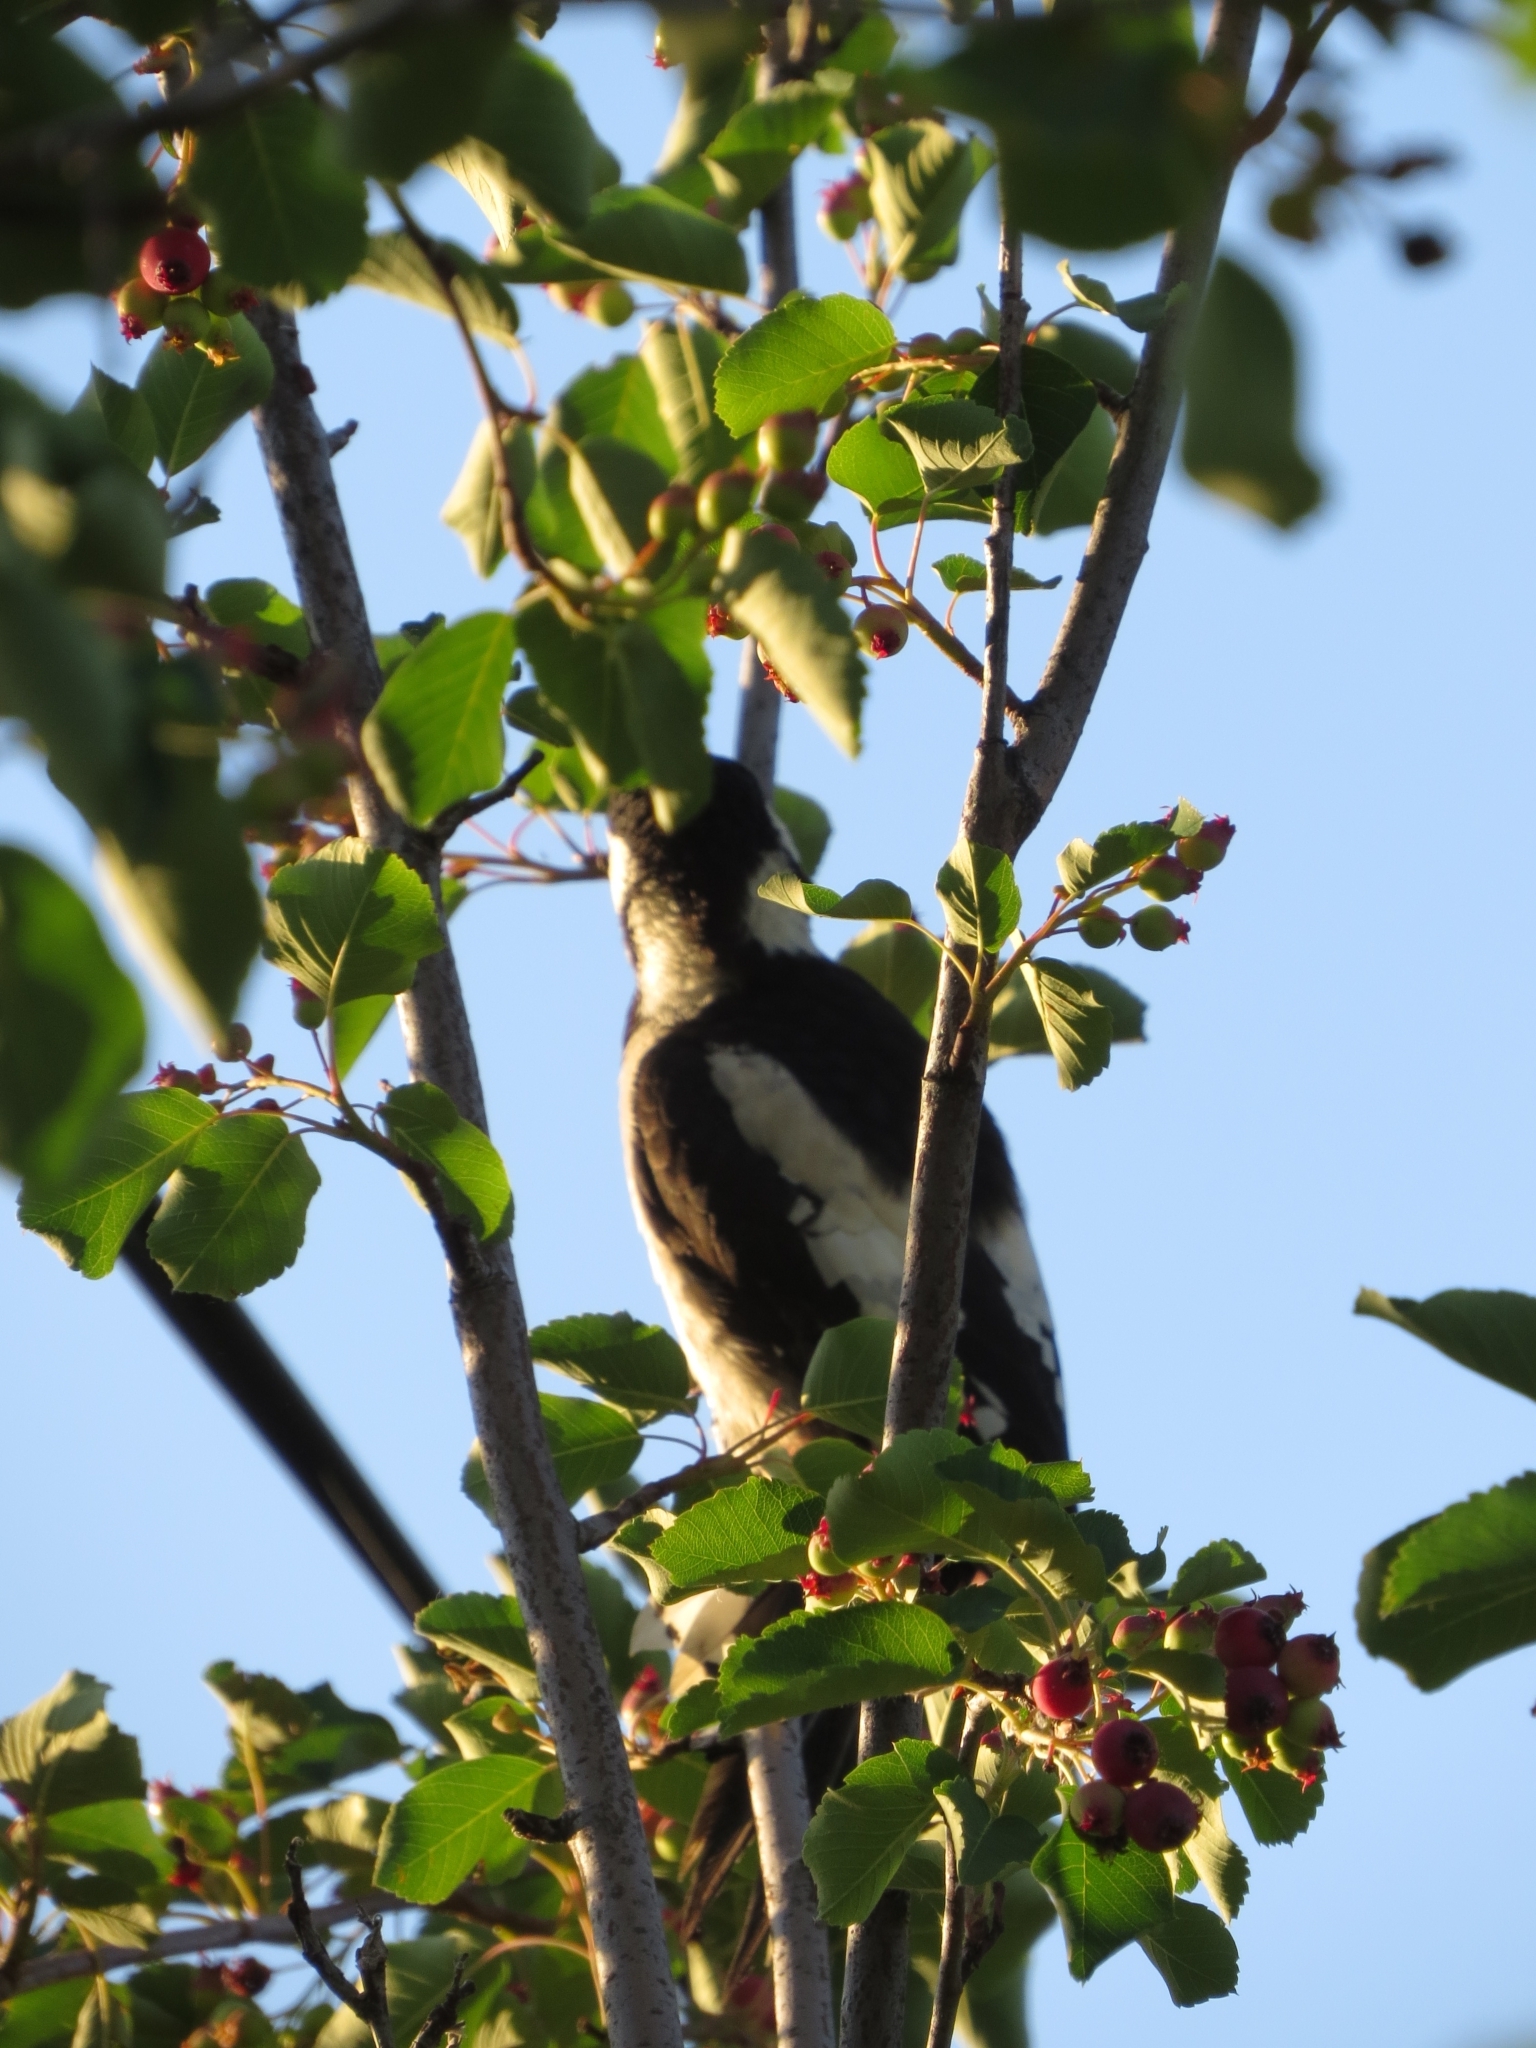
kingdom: Animalia
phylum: Chordata
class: Aves
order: Piciformes
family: Picidae
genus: Dendrocopos
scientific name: Dendrocopos major
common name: Great spotted woodpecker
